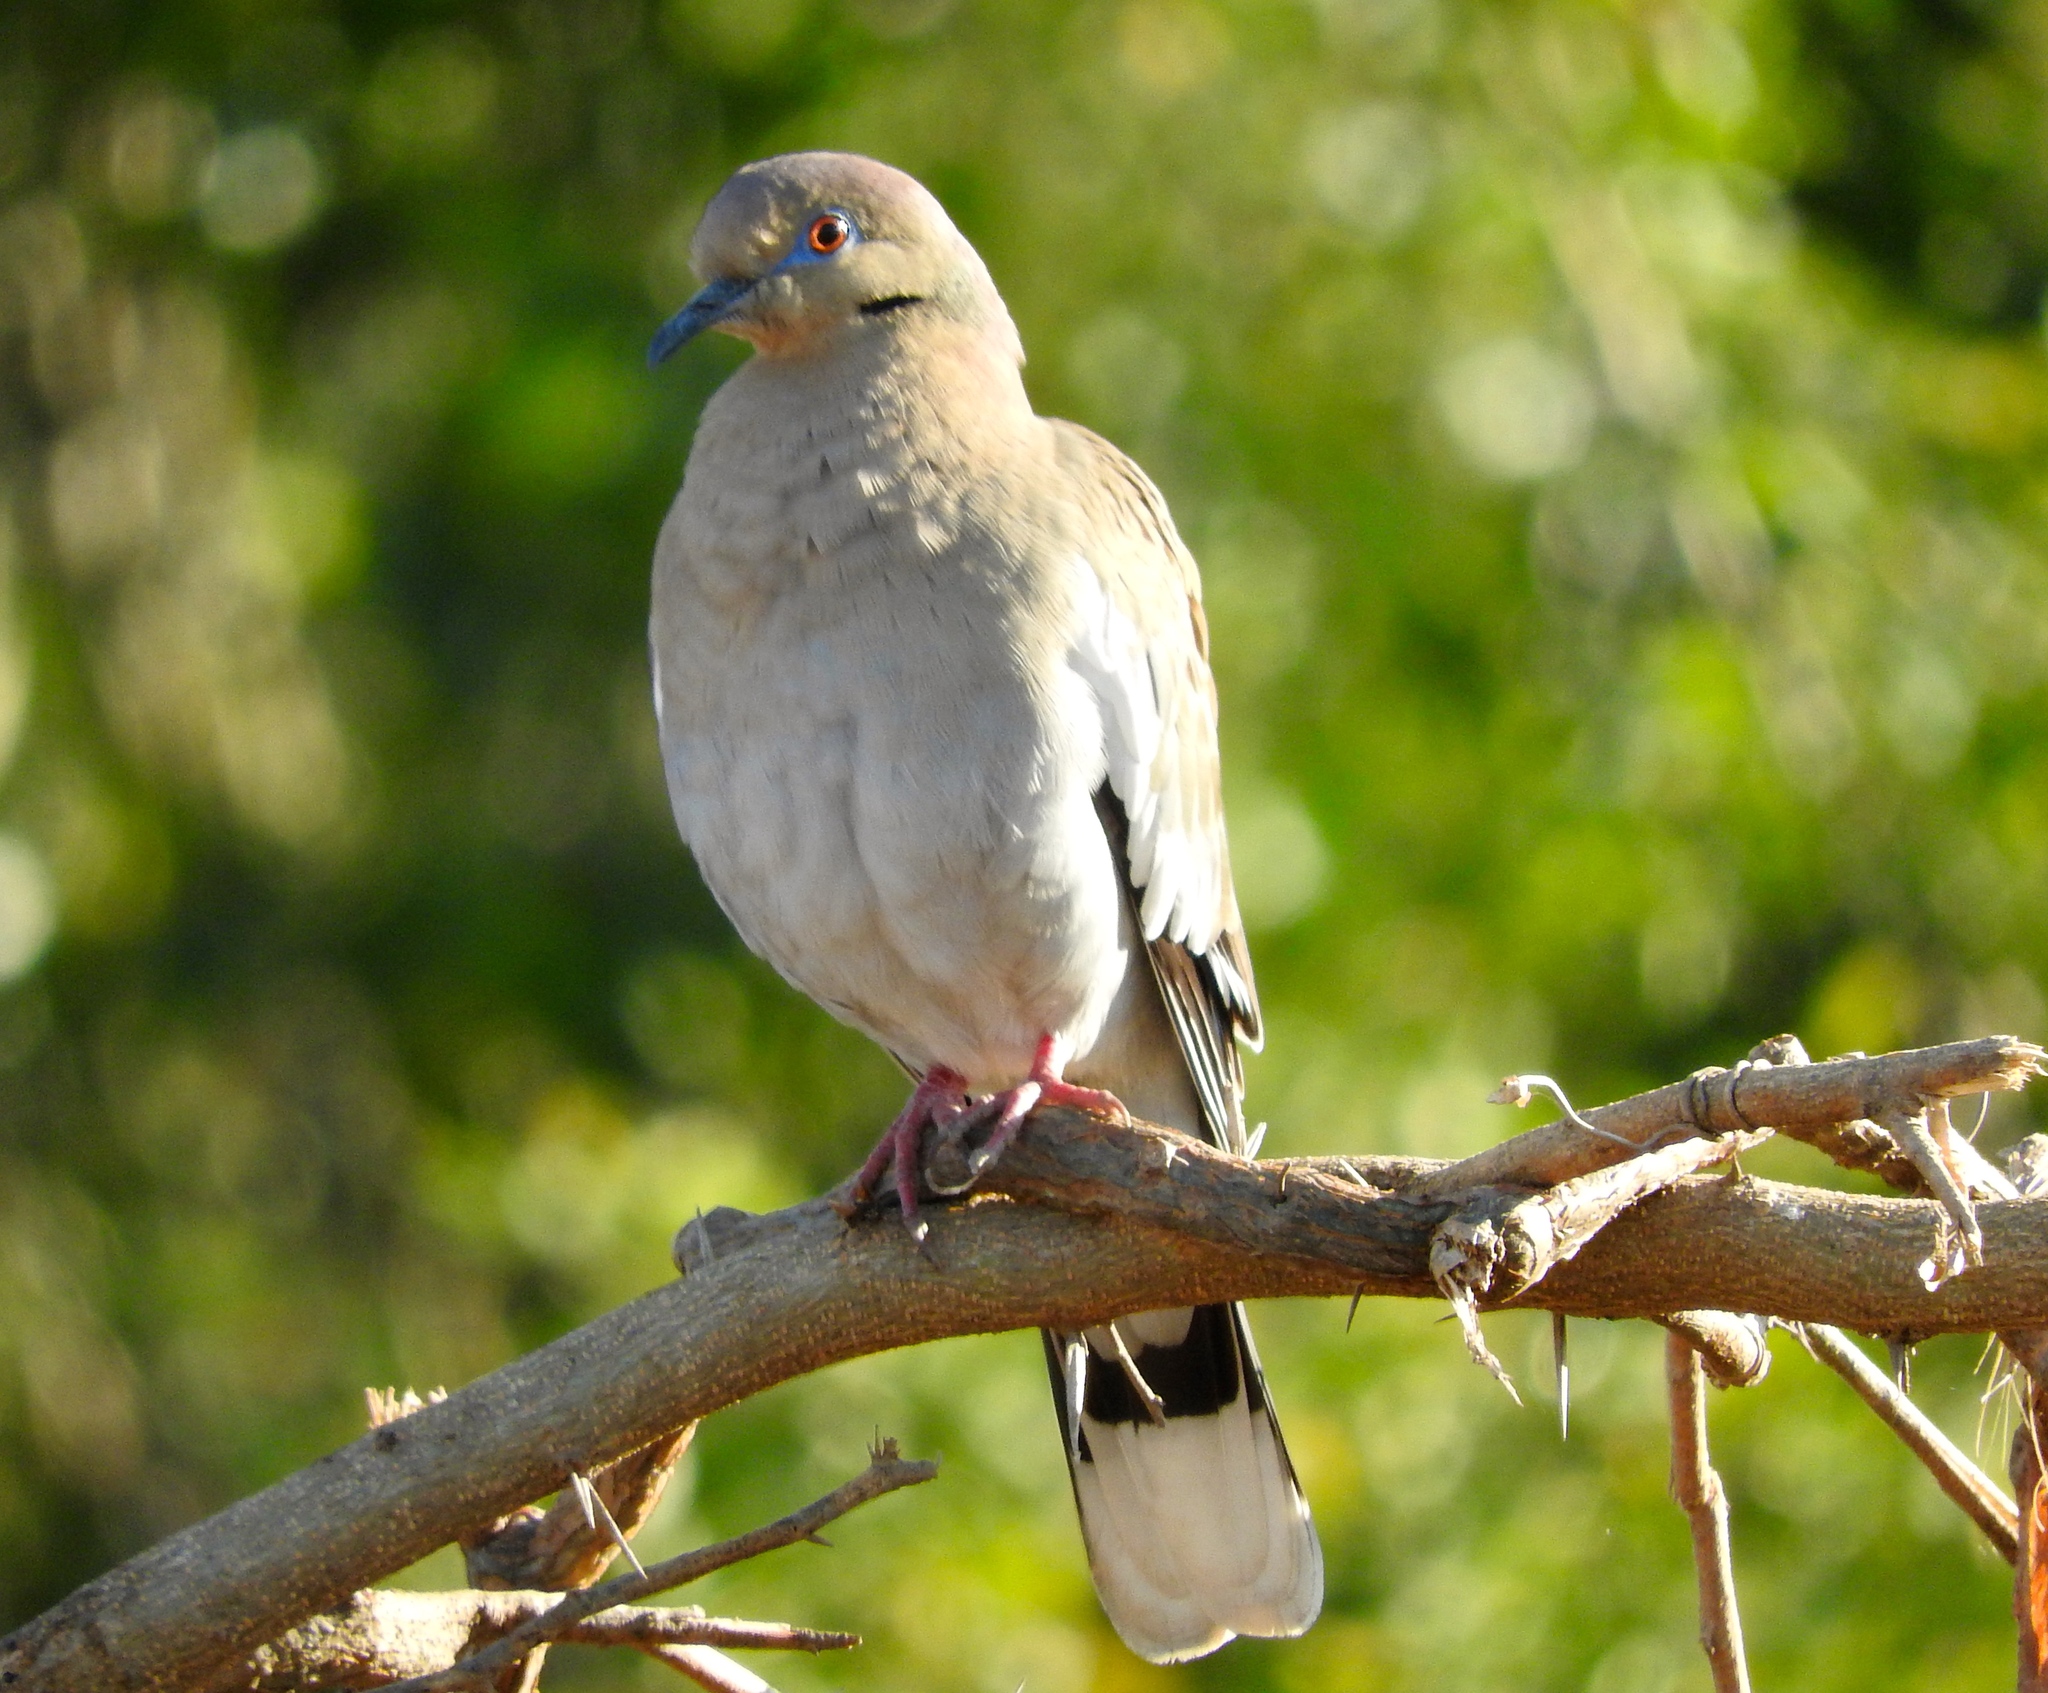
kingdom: Animalia
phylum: Chordata
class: Aves
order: Columbiformes
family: Columbidae
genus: Zenaida
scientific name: Zenaida asiatica
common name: White-winged dove
